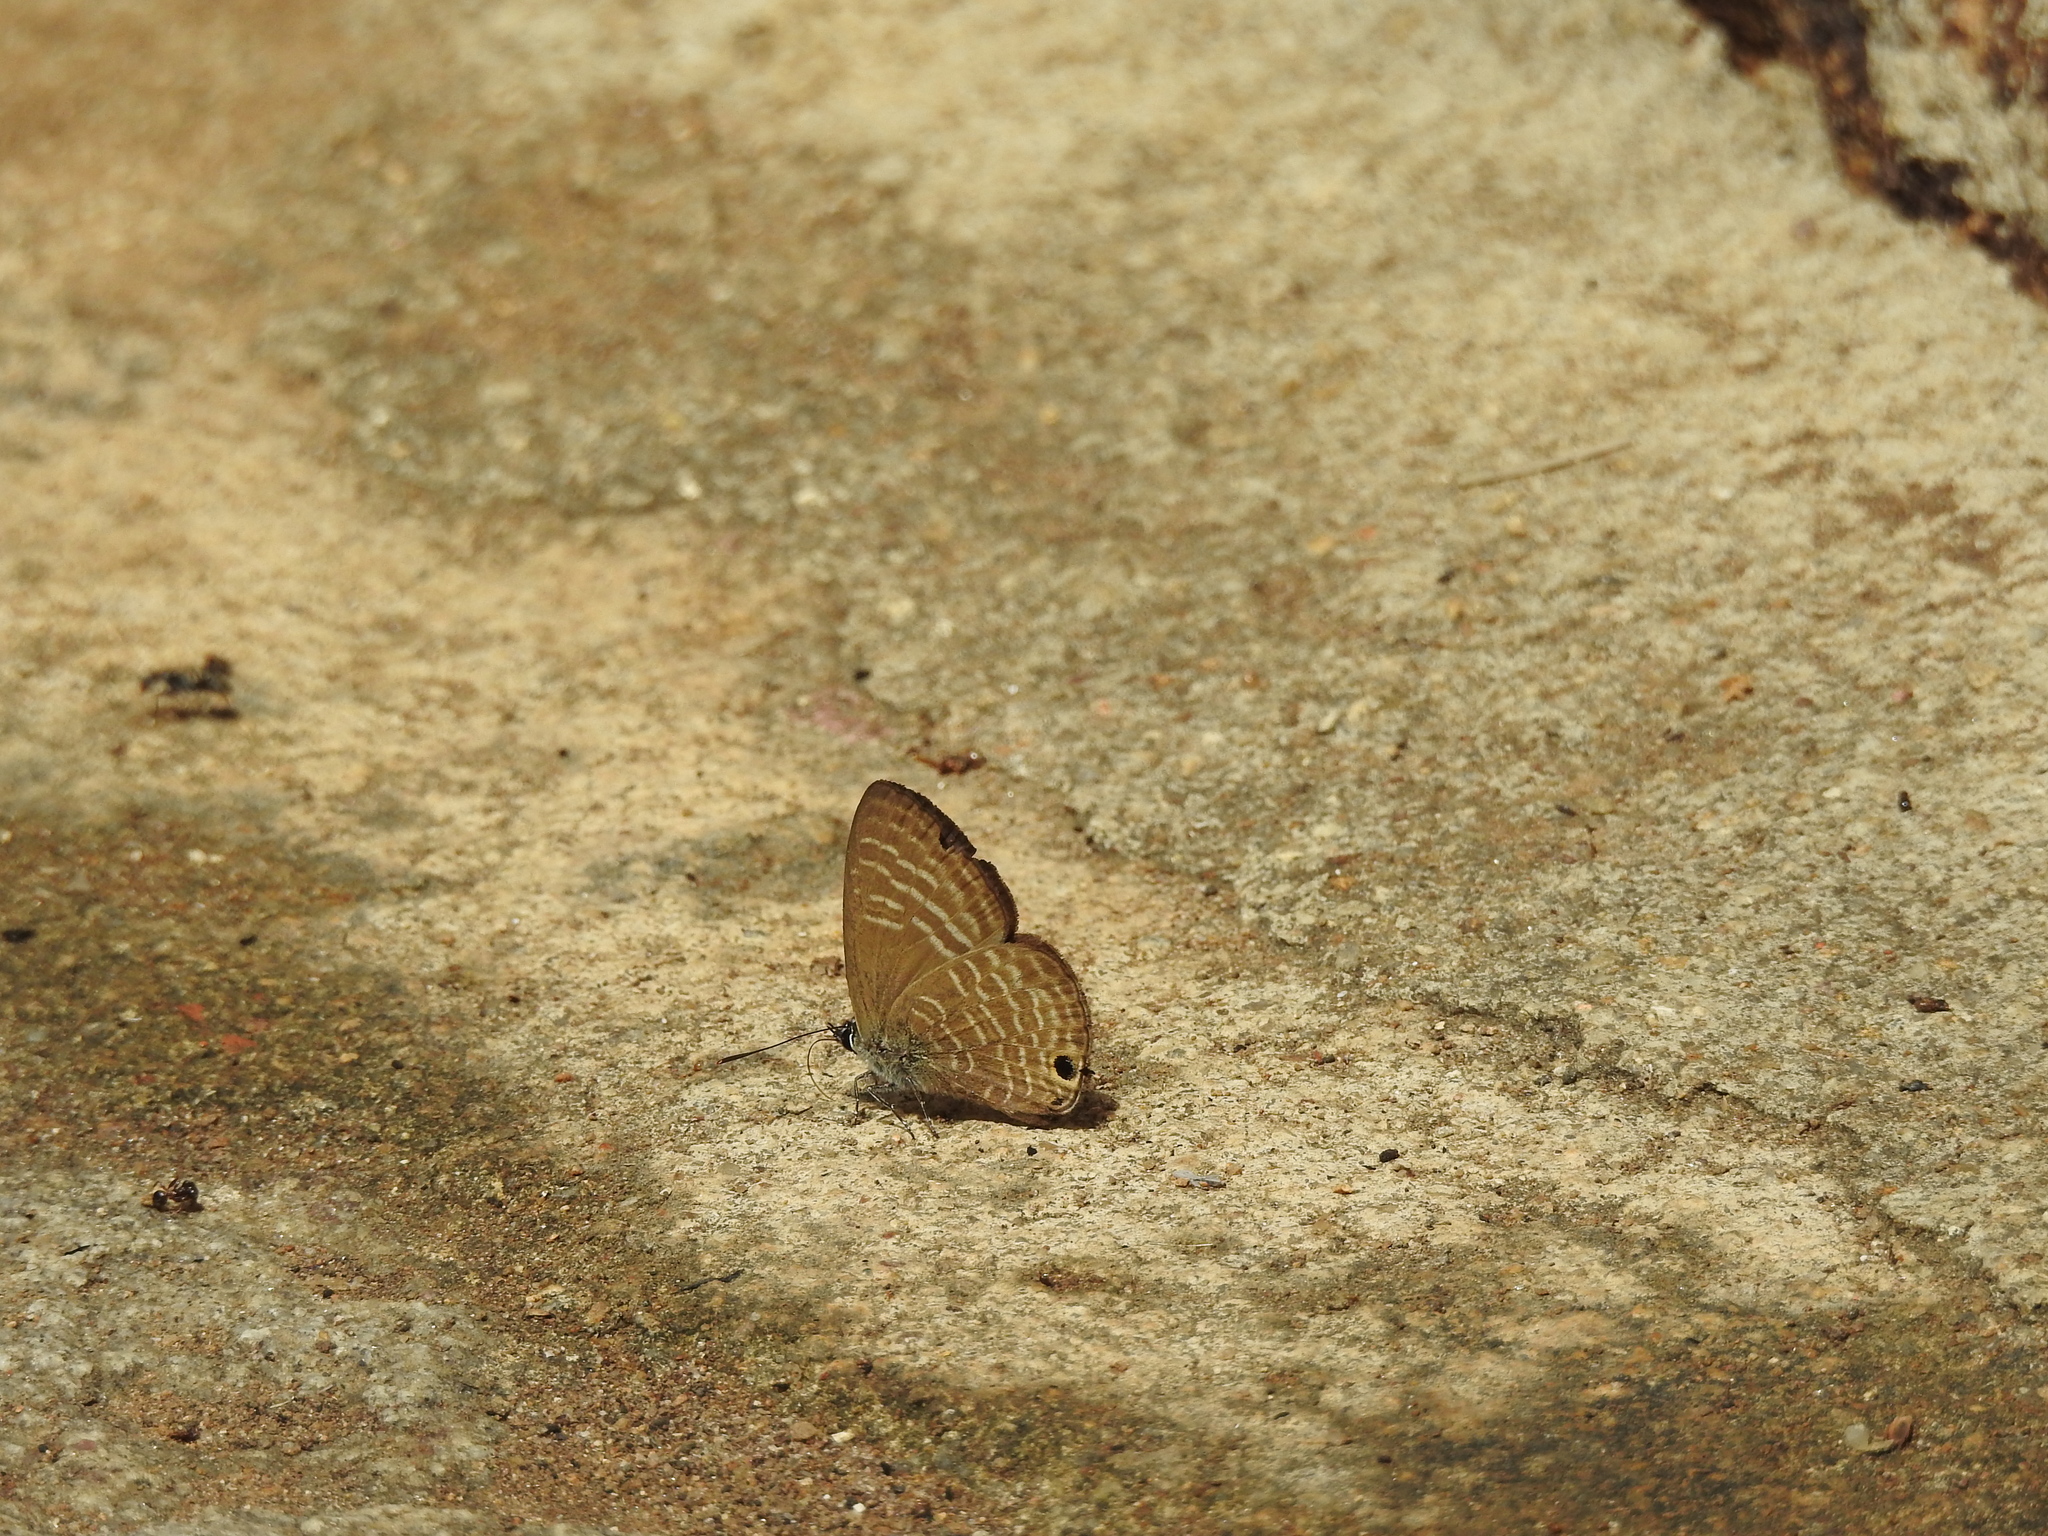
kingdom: Animalia
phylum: Arthropoda
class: Insecta
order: Lepidoptera
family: Lycaenidae
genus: Nacaduba
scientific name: Nacaduba pactolus
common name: Large fourline blue
